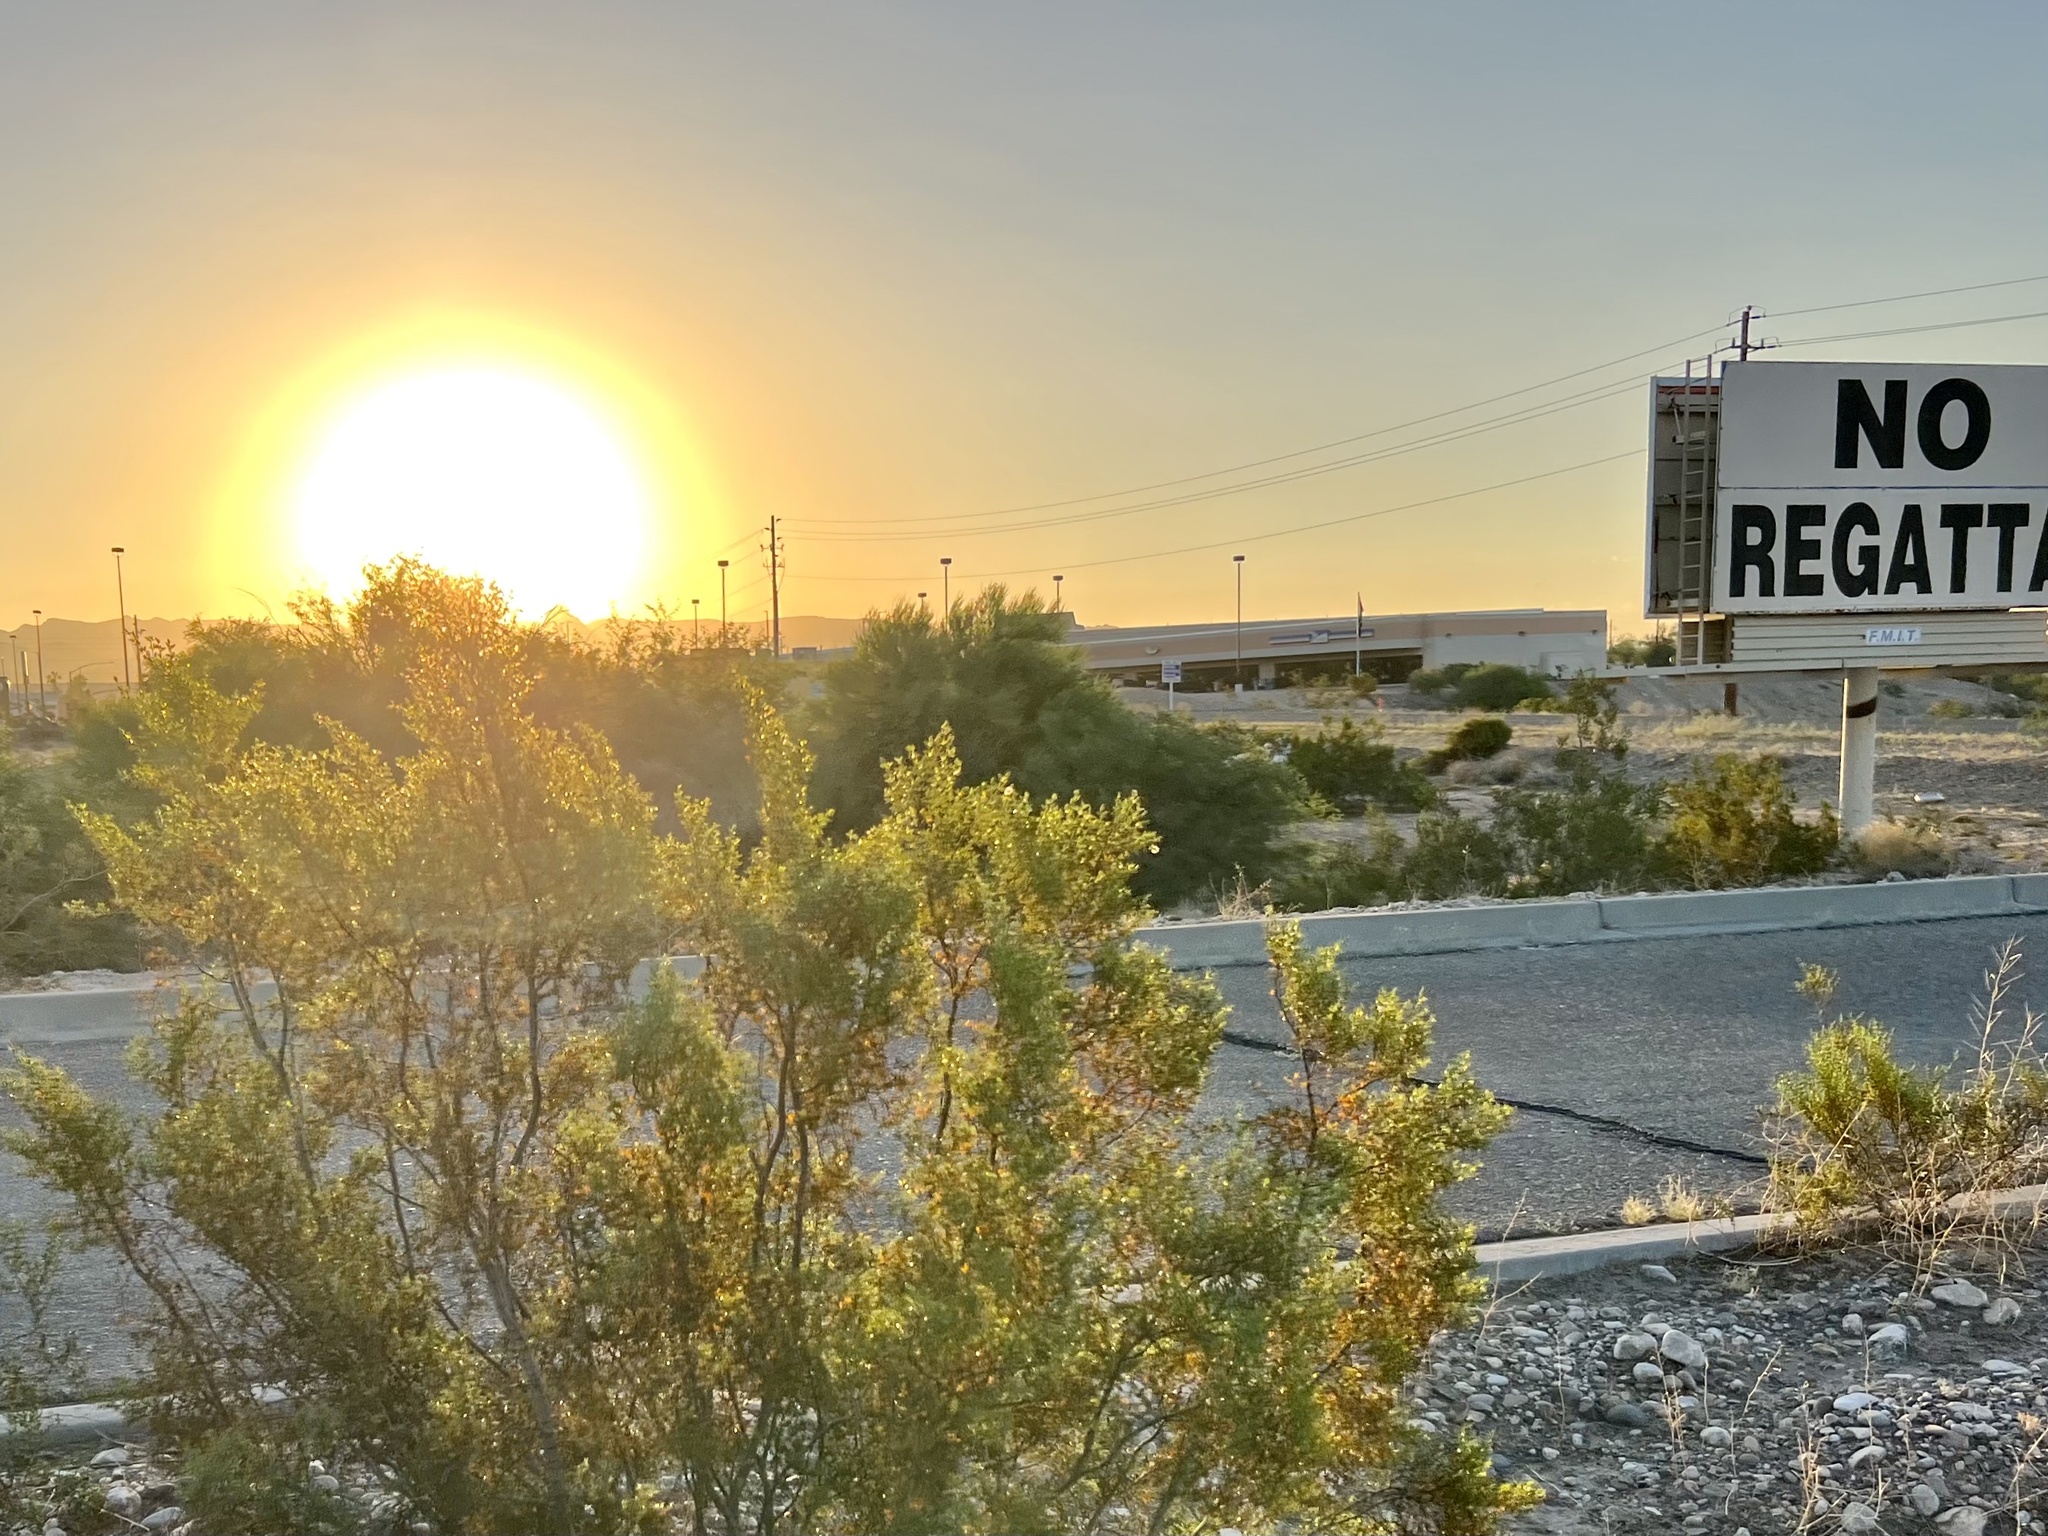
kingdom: Plantae
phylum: Tracheophyta
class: Magnoliopsida
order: Zygophyllales
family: Zygophyllaceae
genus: Larrea
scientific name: Larrea tridentata
